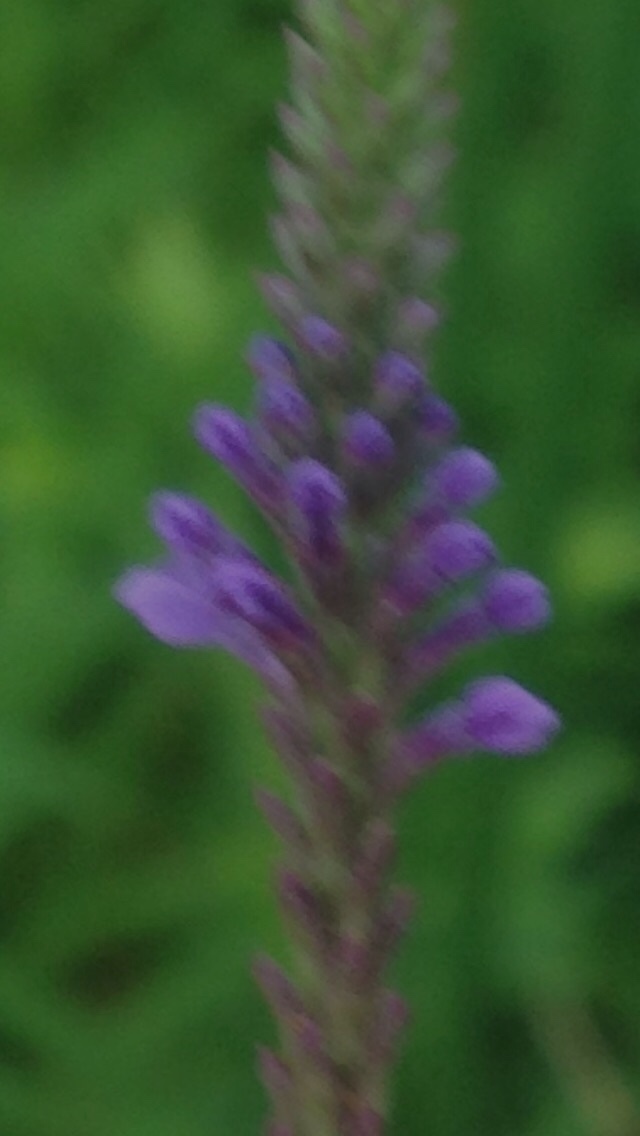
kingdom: Plantae
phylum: Tracheophyta
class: Magnoliopsida
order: Lamiales
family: Verbenaceae
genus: Verbena
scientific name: Verbena hastata
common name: American blue vervain
